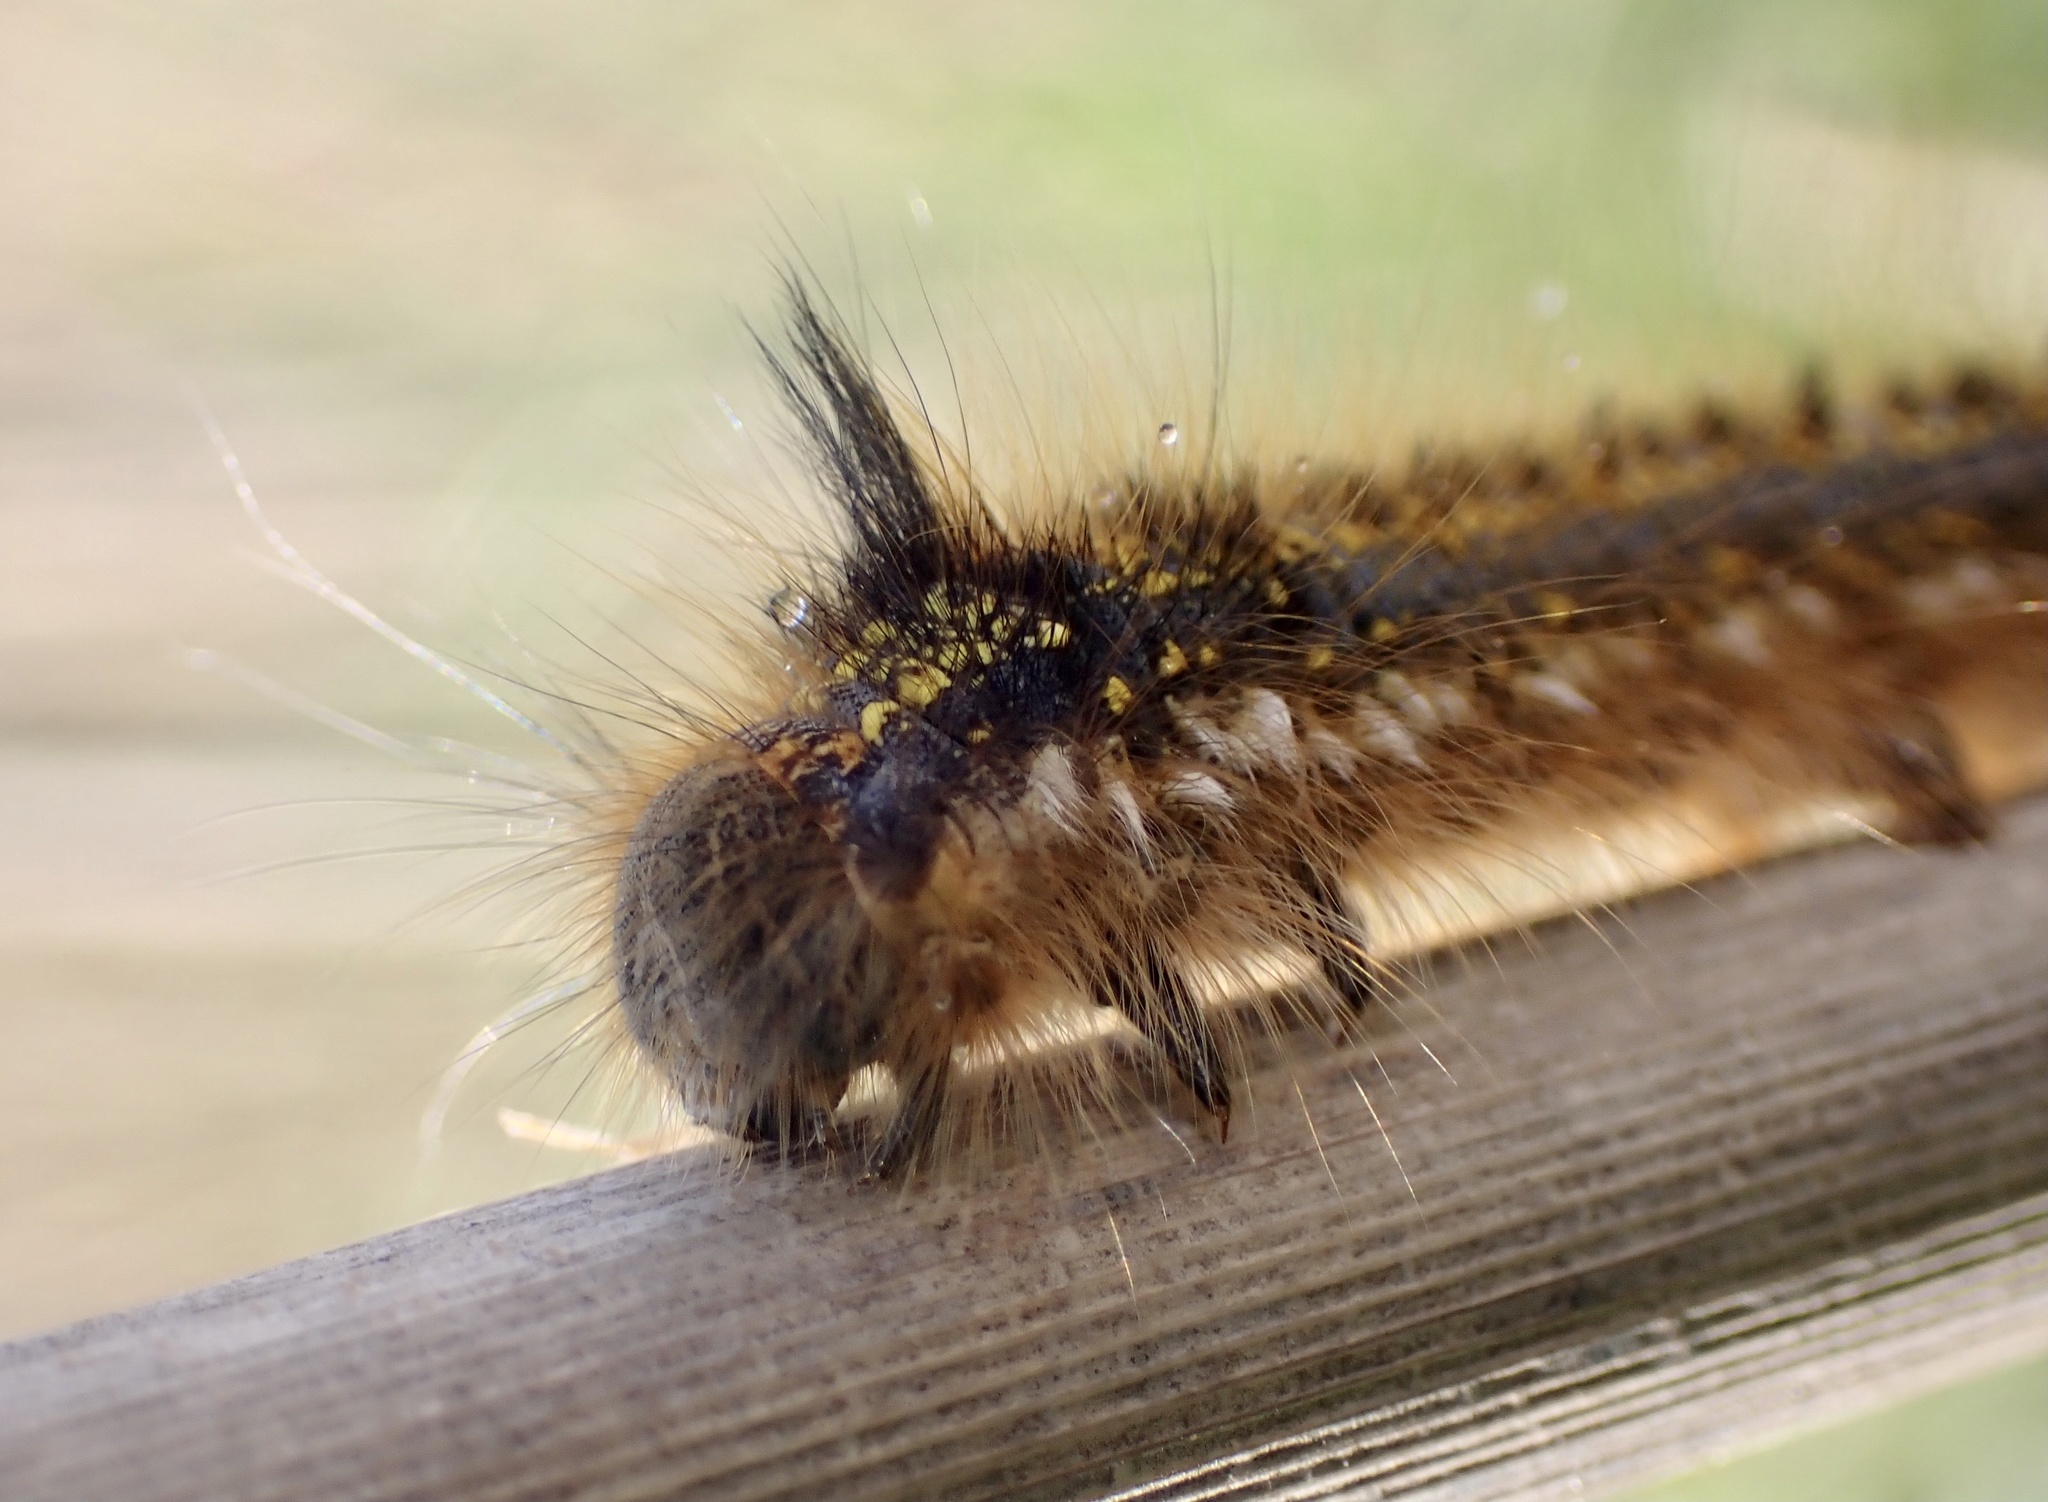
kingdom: Animalia
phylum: Arthropoda
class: Insecta
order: Lepidoptera
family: Lasiocampidae
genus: Euthrix
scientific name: Euthrix potatoria
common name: Drinker
